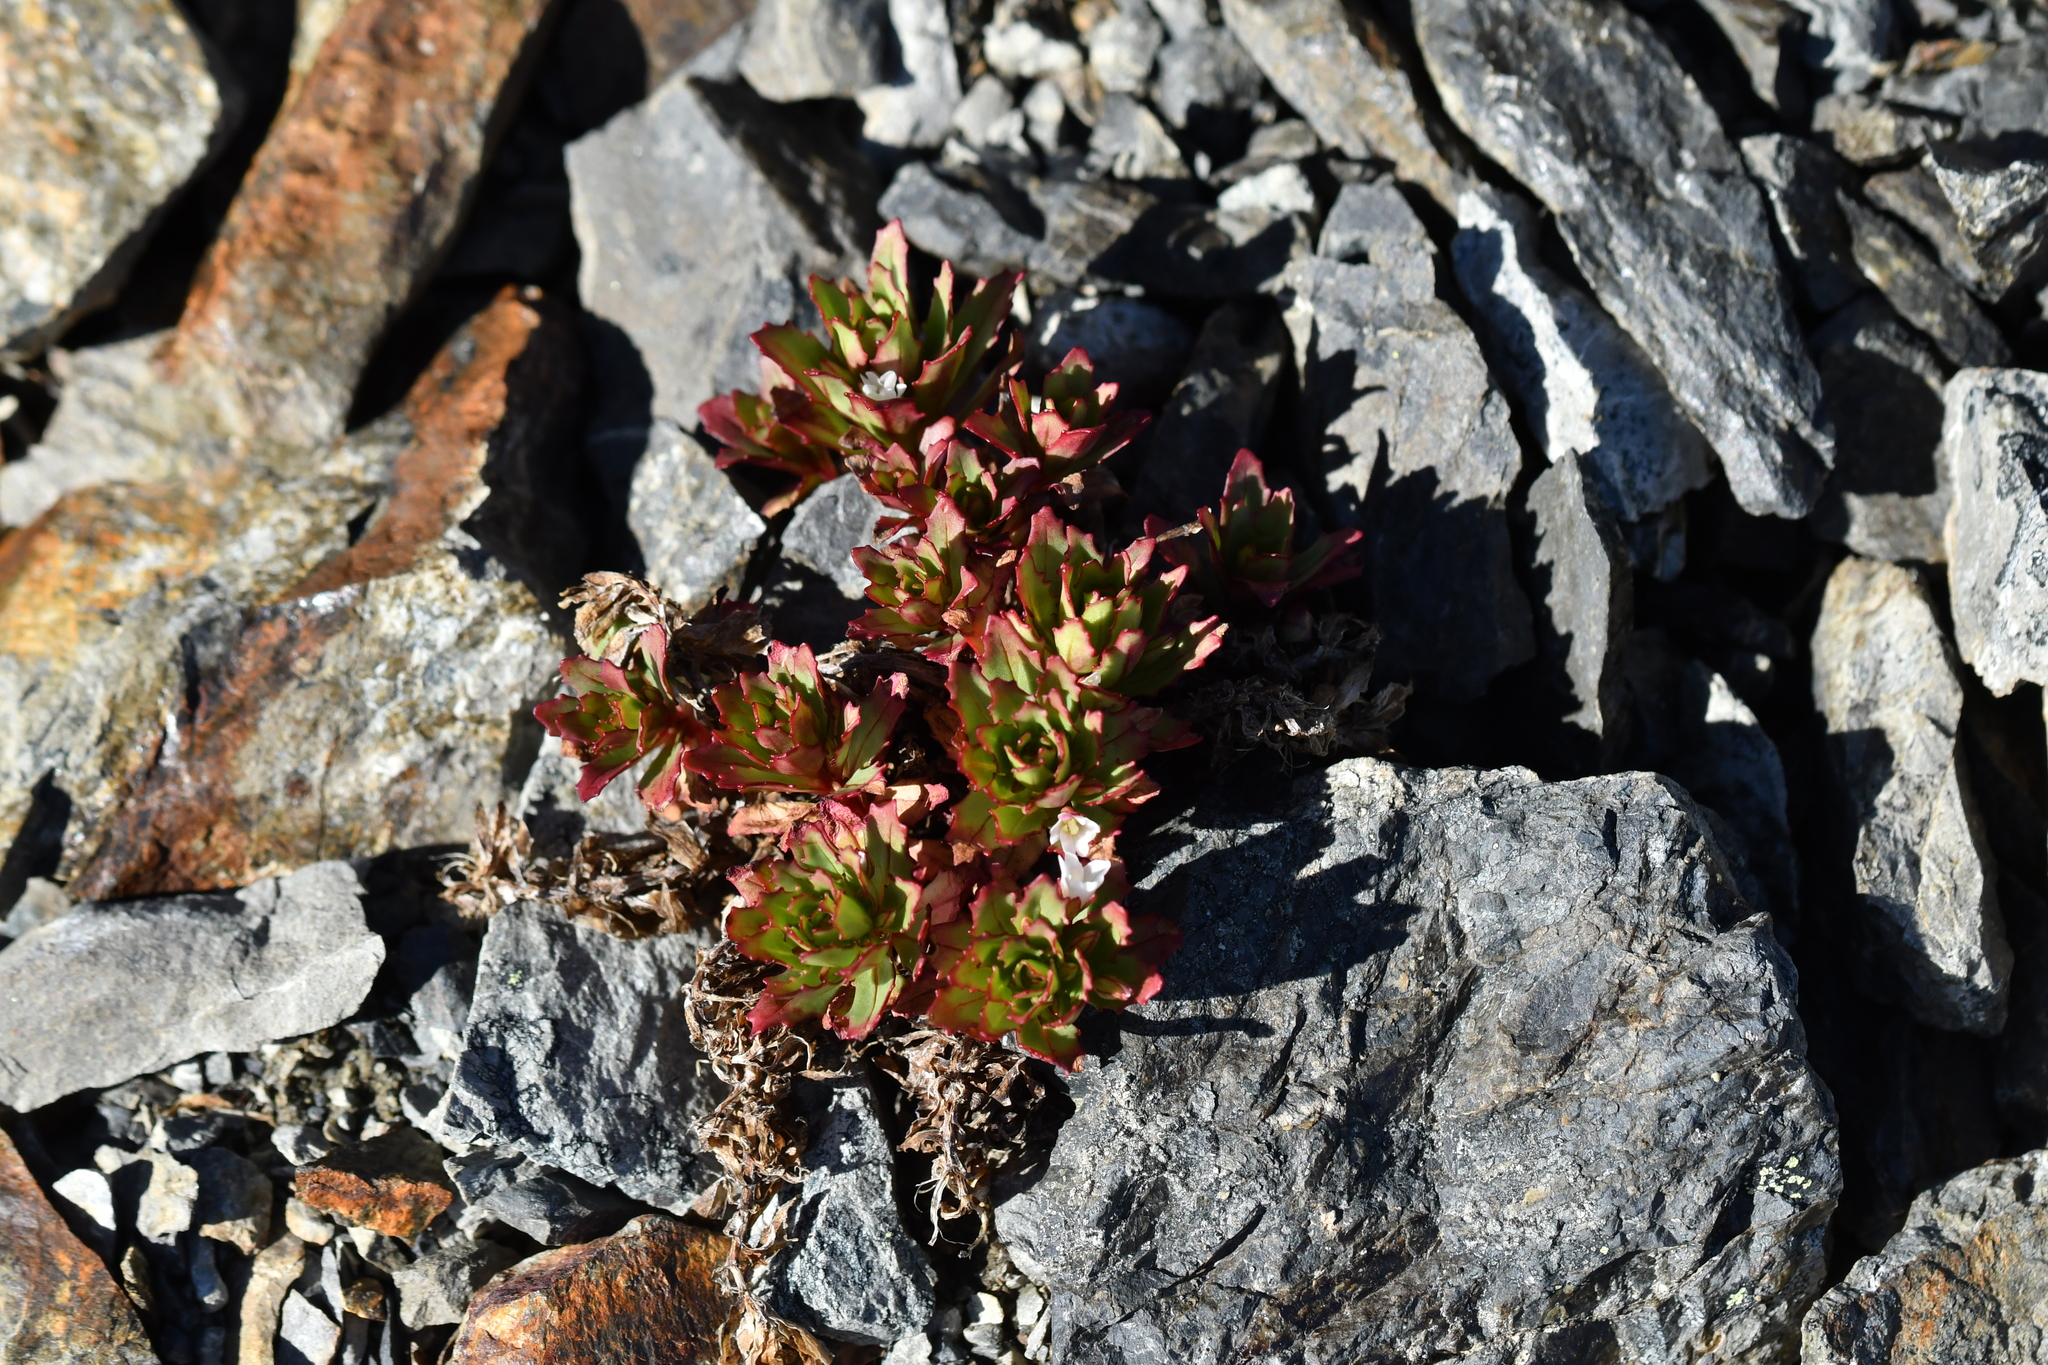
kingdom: Plantae
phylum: Tracheophyta
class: Magnoliopsida
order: Myrtales
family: Onagraceae
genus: Epilobium
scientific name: Epilobium pycnostachyum
